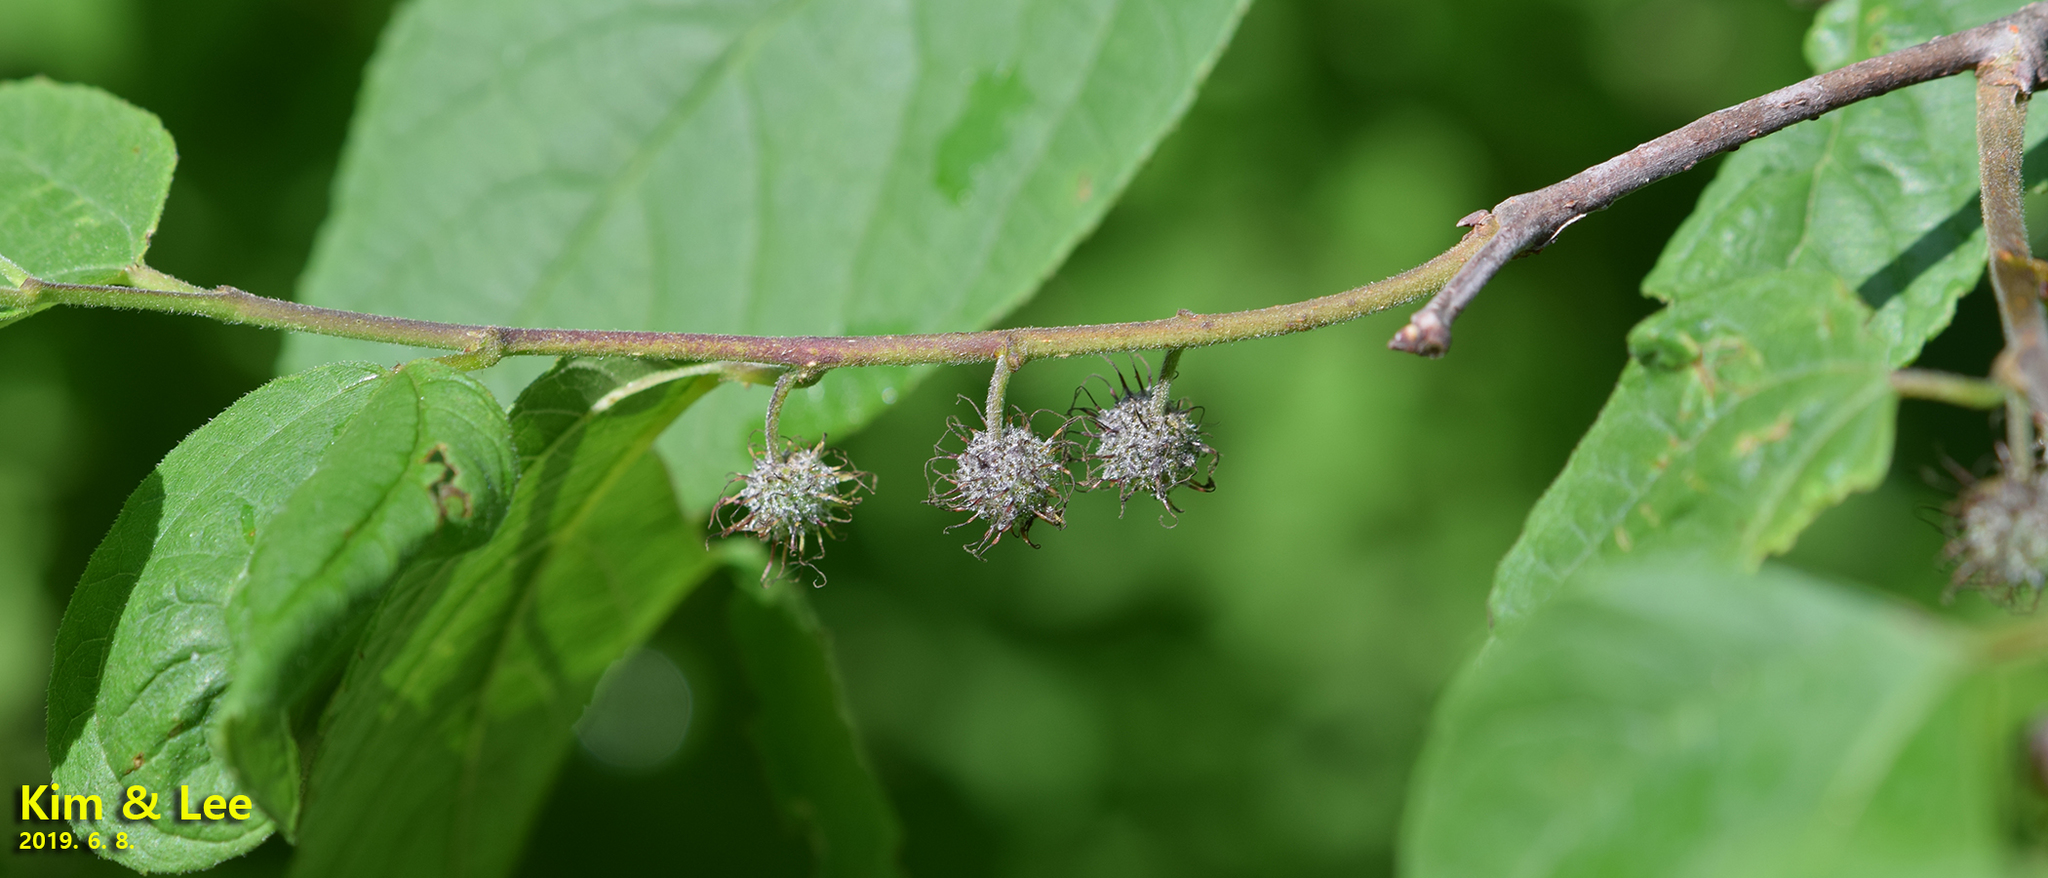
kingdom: Plantae
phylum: Tracheophyta
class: Magnoliopsida
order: Rosales
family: Moraceae
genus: Broussonetia
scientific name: Broussonetia papyrifera
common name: Paper mulberry
